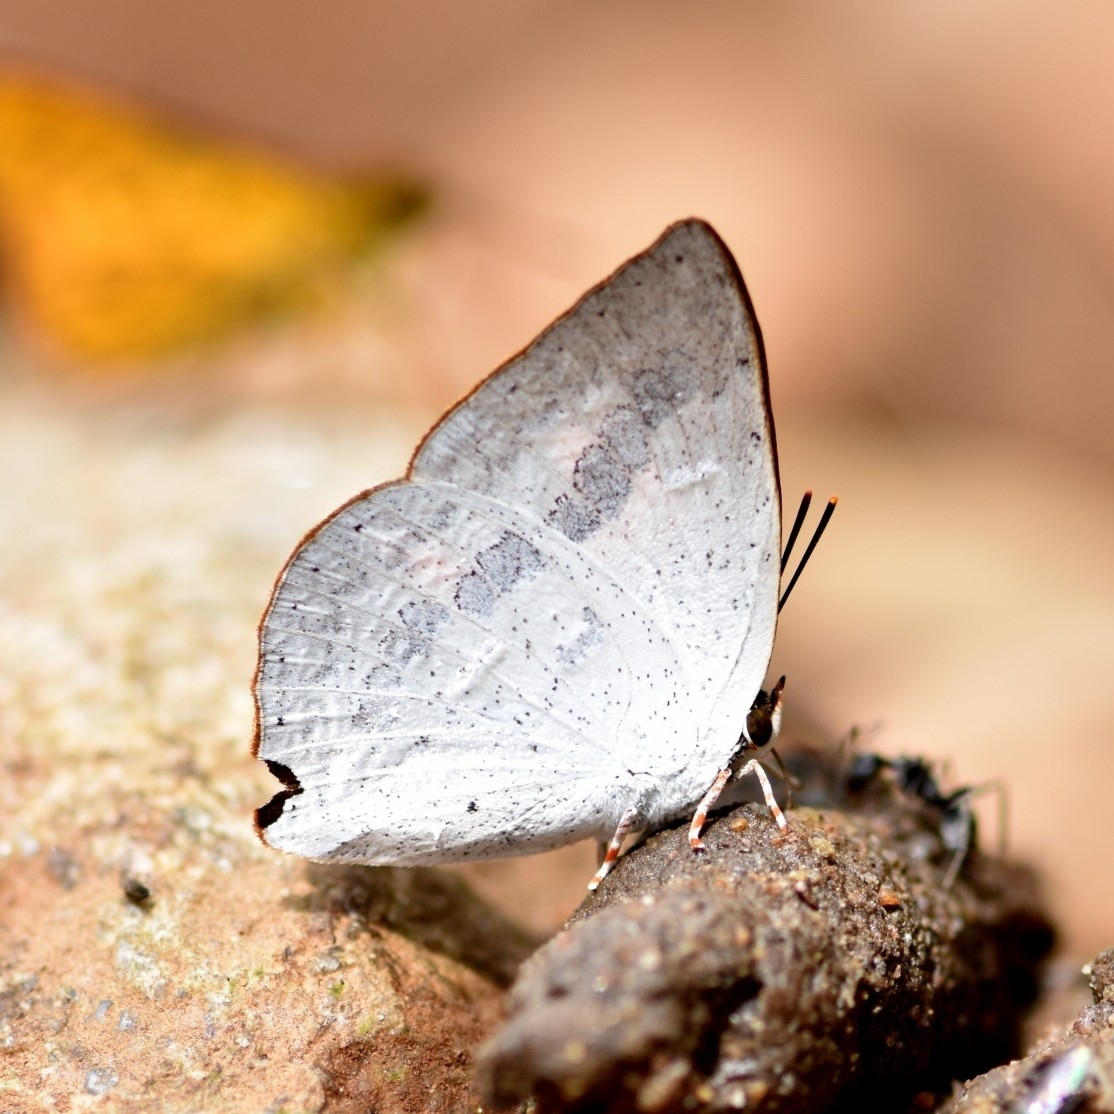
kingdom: Animalia
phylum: Arthropoda
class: Insecta
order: Lepidoptera
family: Lycaenidae
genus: Curetis
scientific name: Curetis siva
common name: Shiva sunbeam
